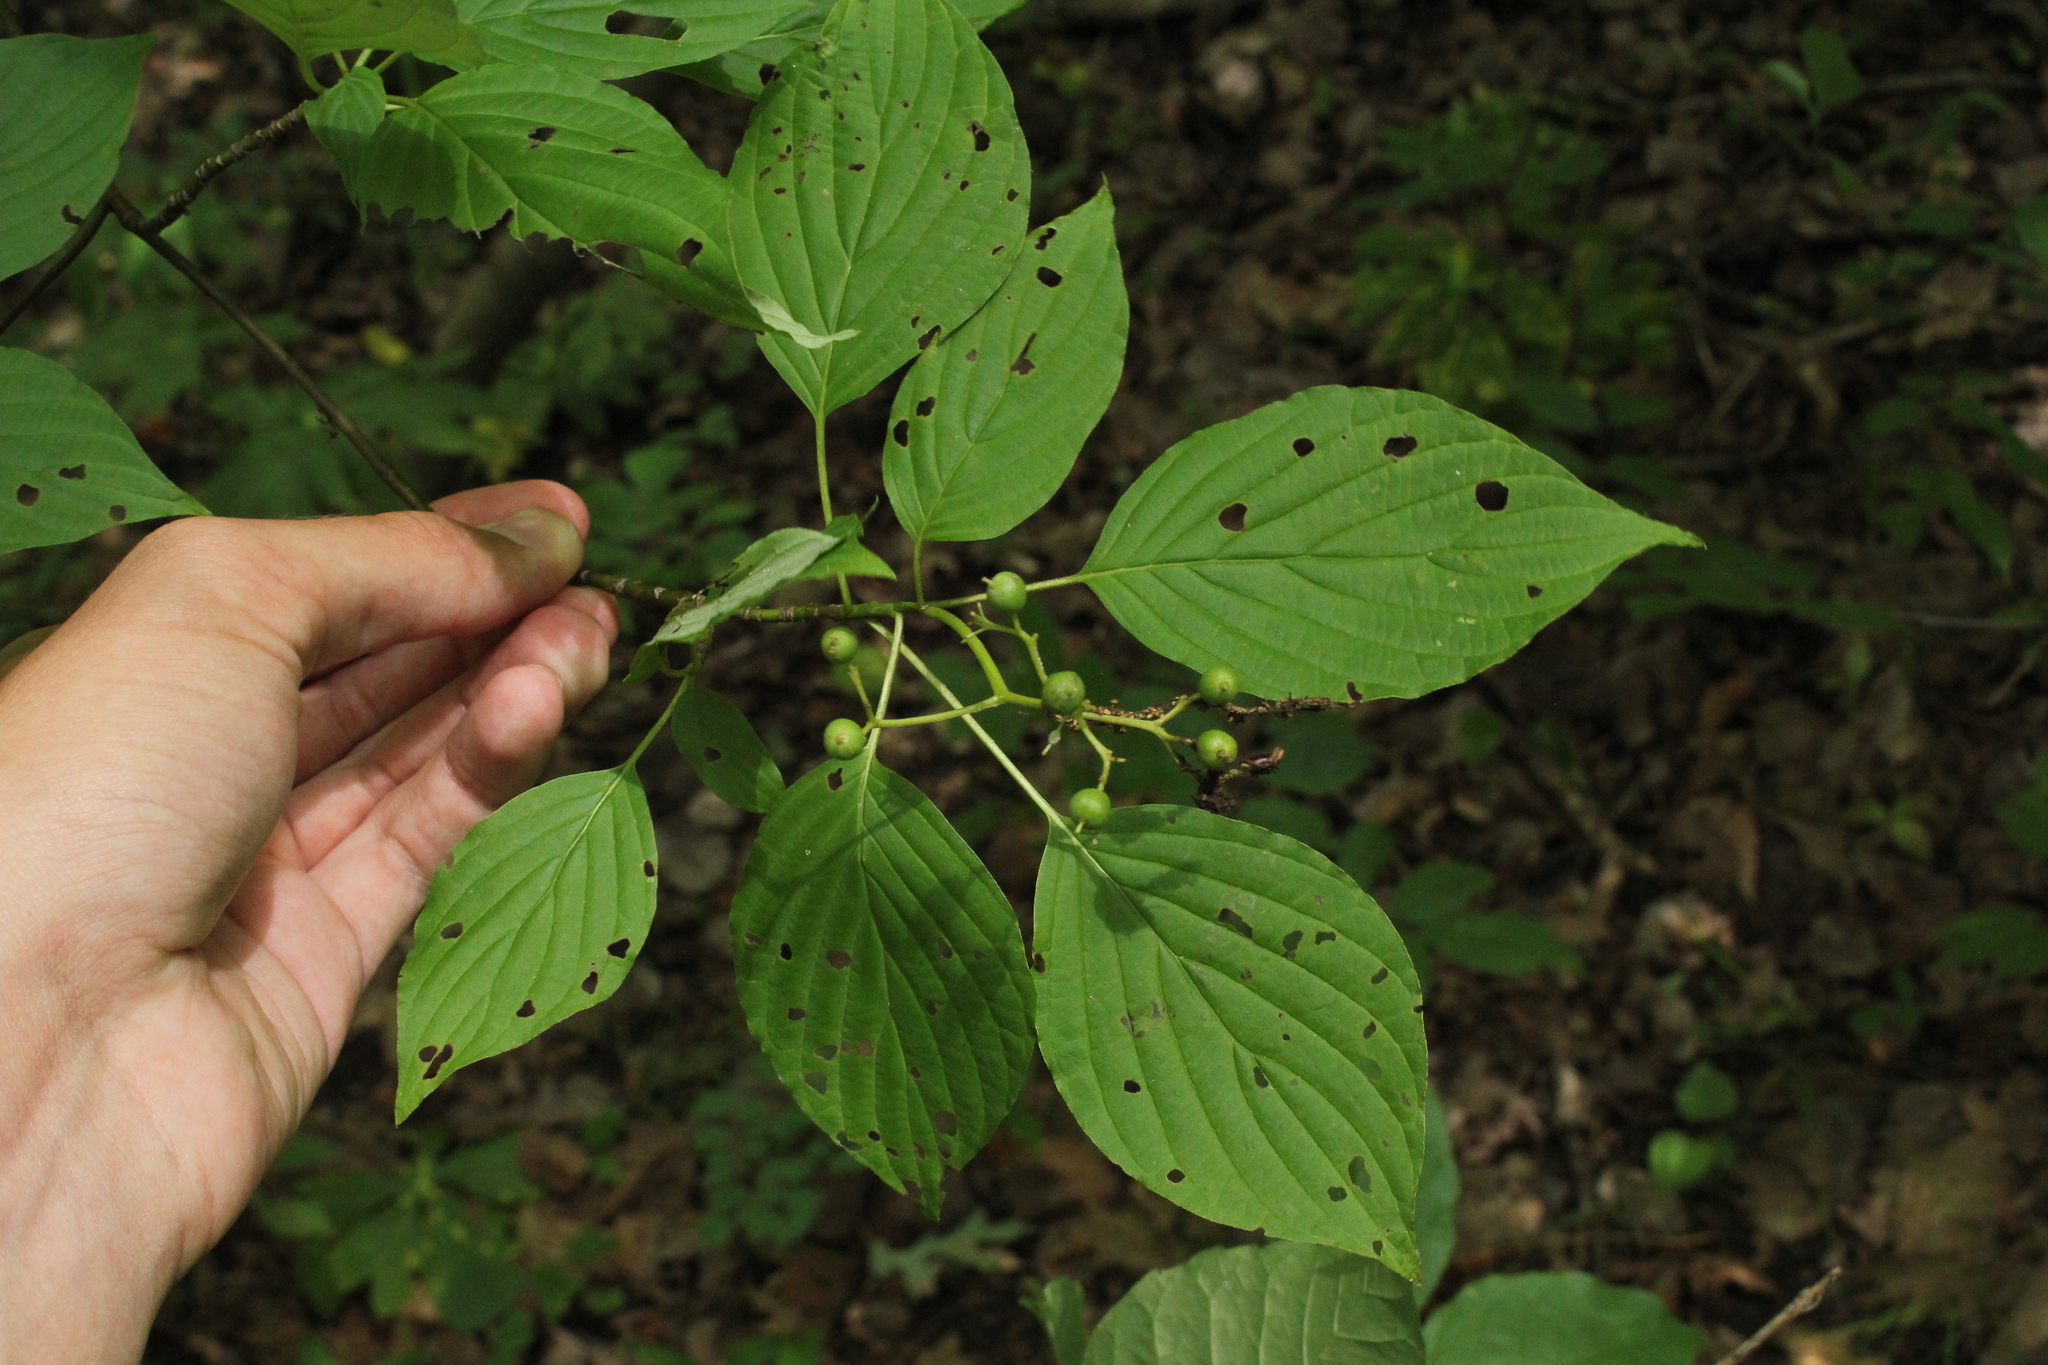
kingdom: Plantae
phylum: Tracheophyta
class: Magnoliopsida
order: Cornales
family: Cornaceae
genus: Cornus
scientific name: Cornus alternifolia
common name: Pagoda dogwood
